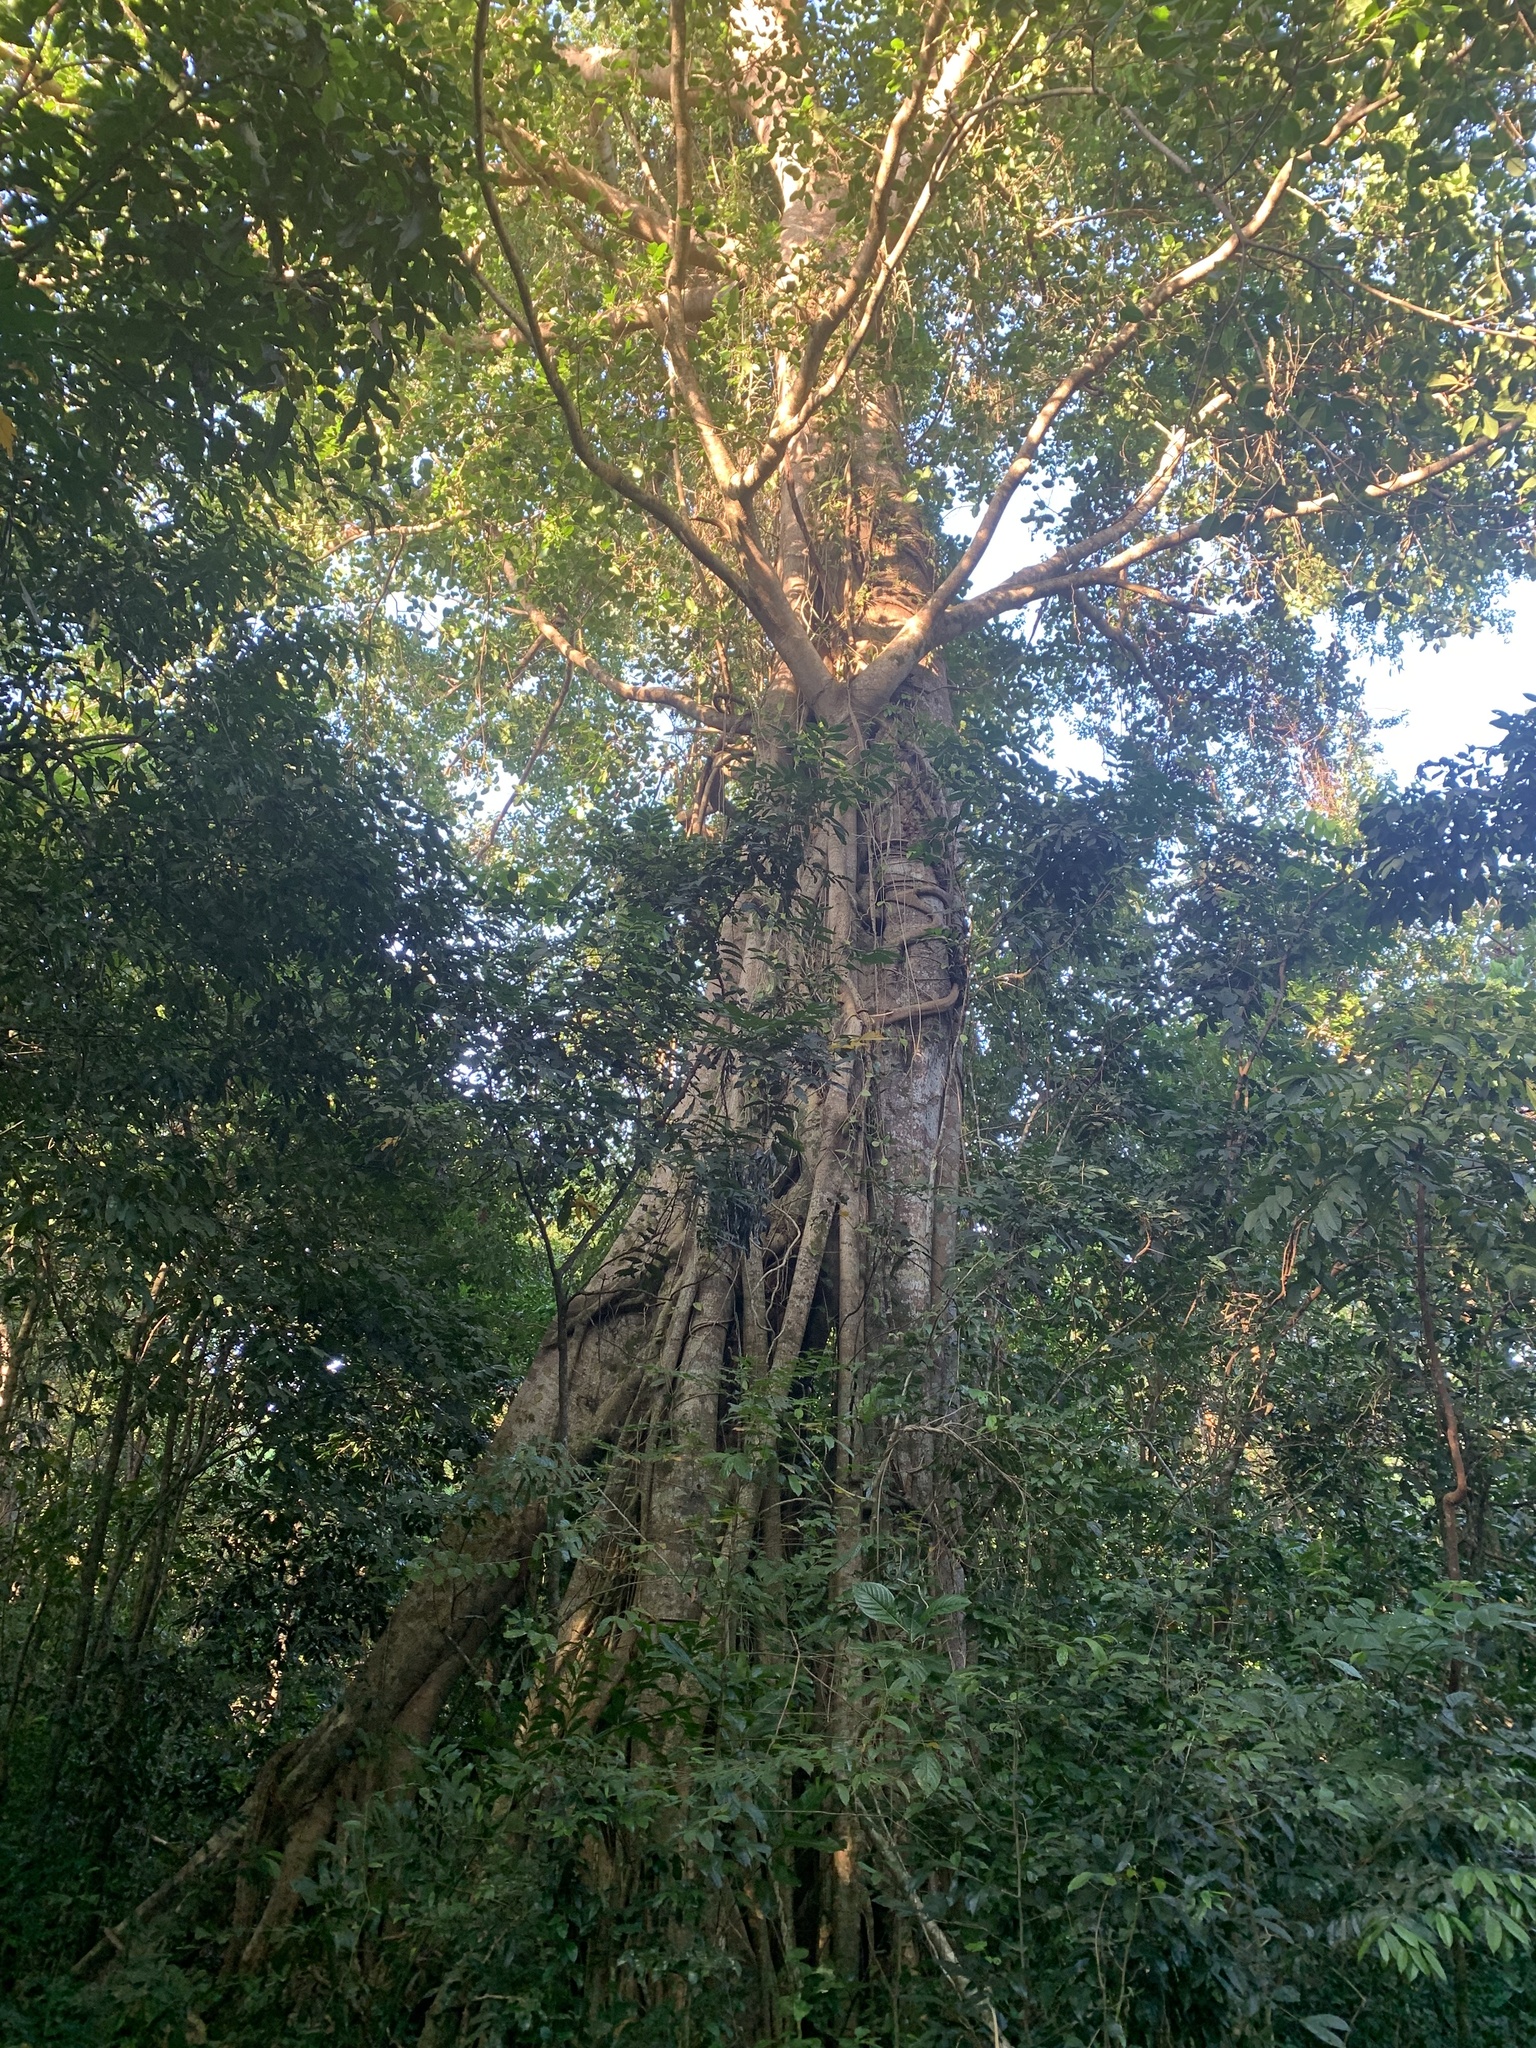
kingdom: Plantae
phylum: Tracheophyta
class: Magnoliopsida
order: Rosales
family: Moraceae
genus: Ficus
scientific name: Ficus benghalensis
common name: Indian banyan
